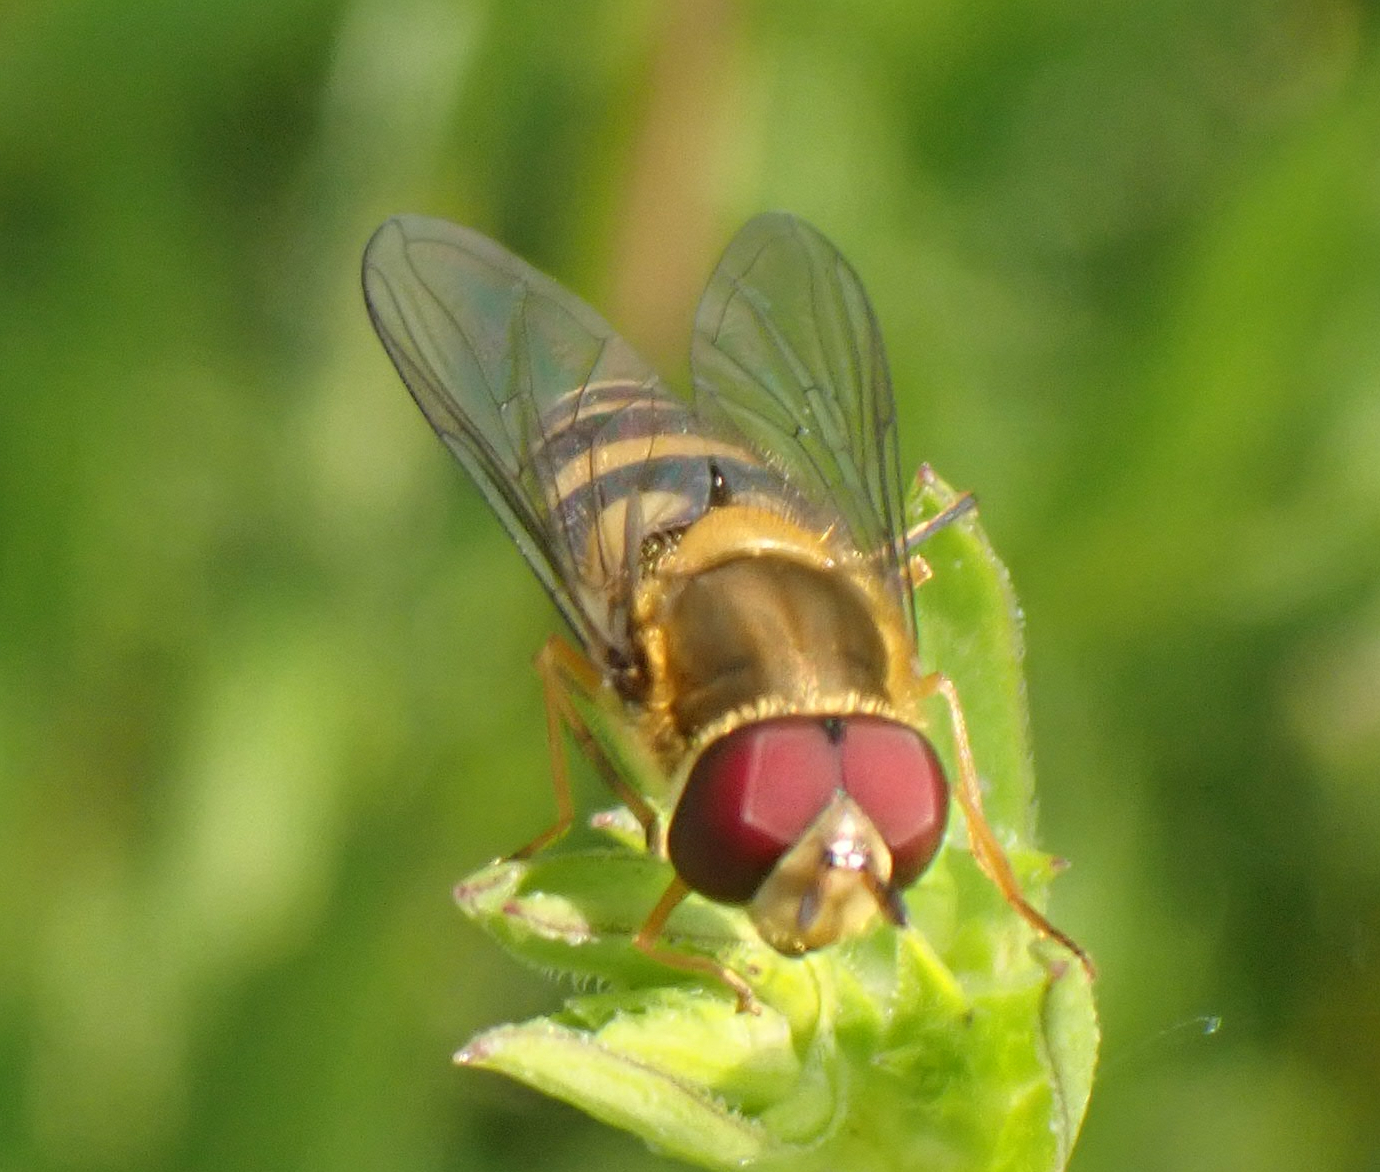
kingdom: Animalia
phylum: Arthropoda
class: Insecta
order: Diptera
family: Syrphidae
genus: Syrphus
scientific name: Syrphus
